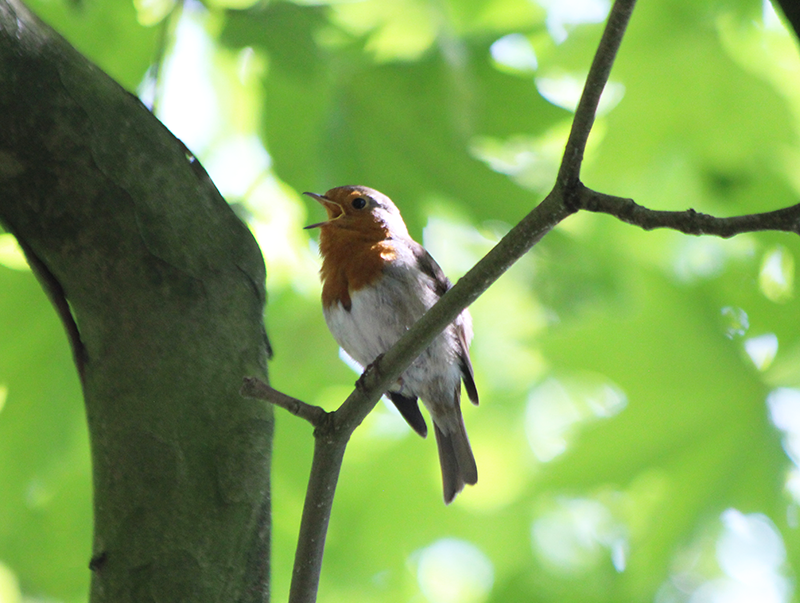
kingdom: Animalia
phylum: Chordata
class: Aves
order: Passeriformes
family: Muscicapidae
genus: Erithacus
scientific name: Erithacus rubecula
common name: European robin
